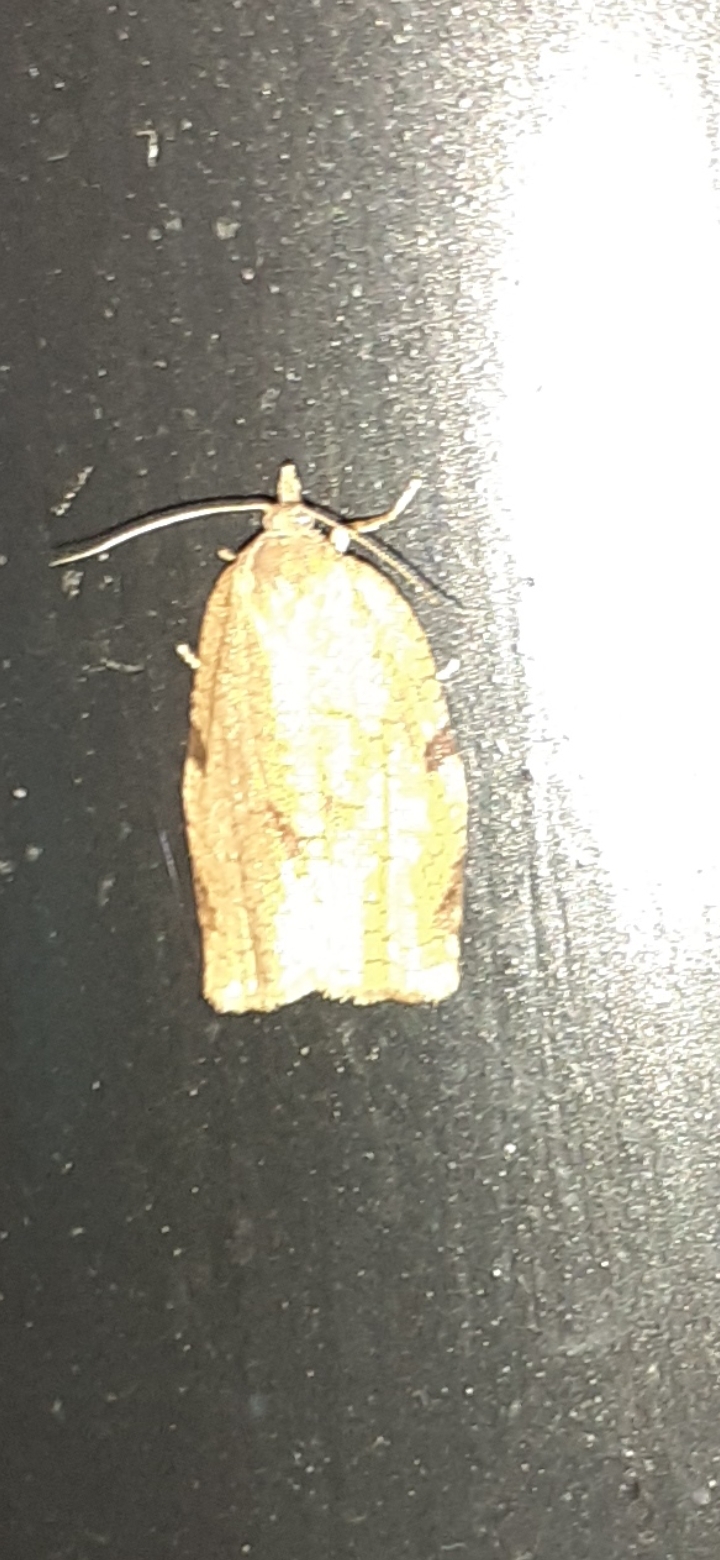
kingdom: Animalia
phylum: Arthropoda
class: Insecta
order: Lepidoptera
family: Tortricidae
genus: Lozotaenia
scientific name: Lozotaenia forsterana
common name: Large ivy twist
